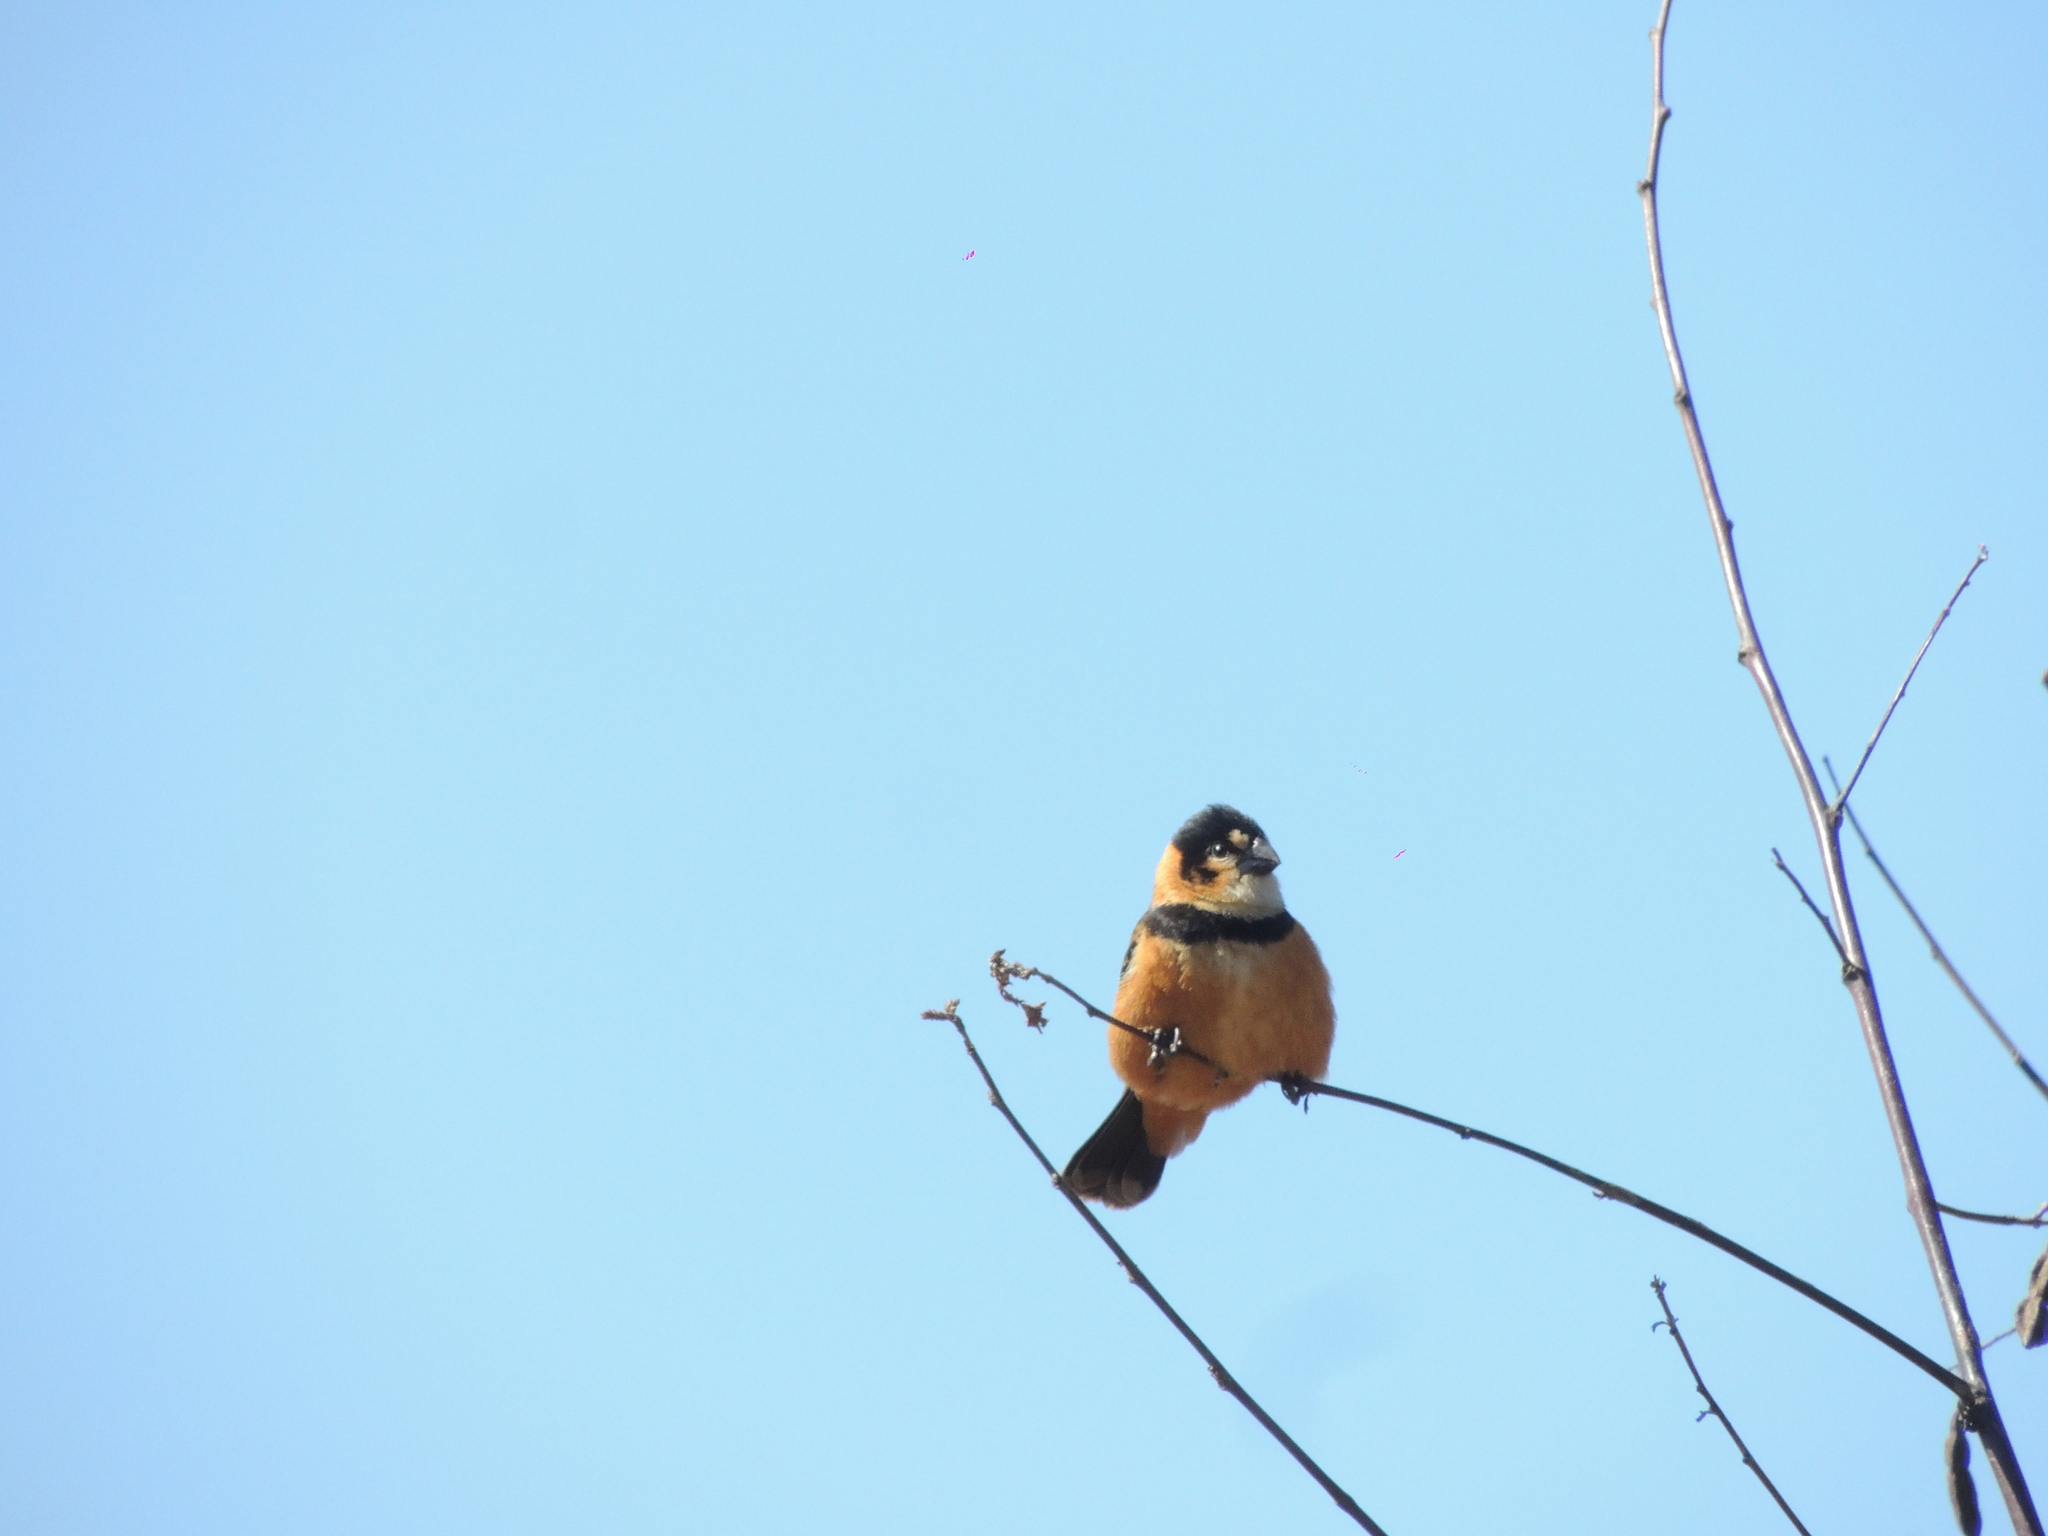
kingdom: Animalia
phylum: Chordata
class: Aves
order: Passeriformes
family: Thraupidae
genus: Sporophila
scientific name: Sporophila collaris
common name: Rusty-collared seedeater
